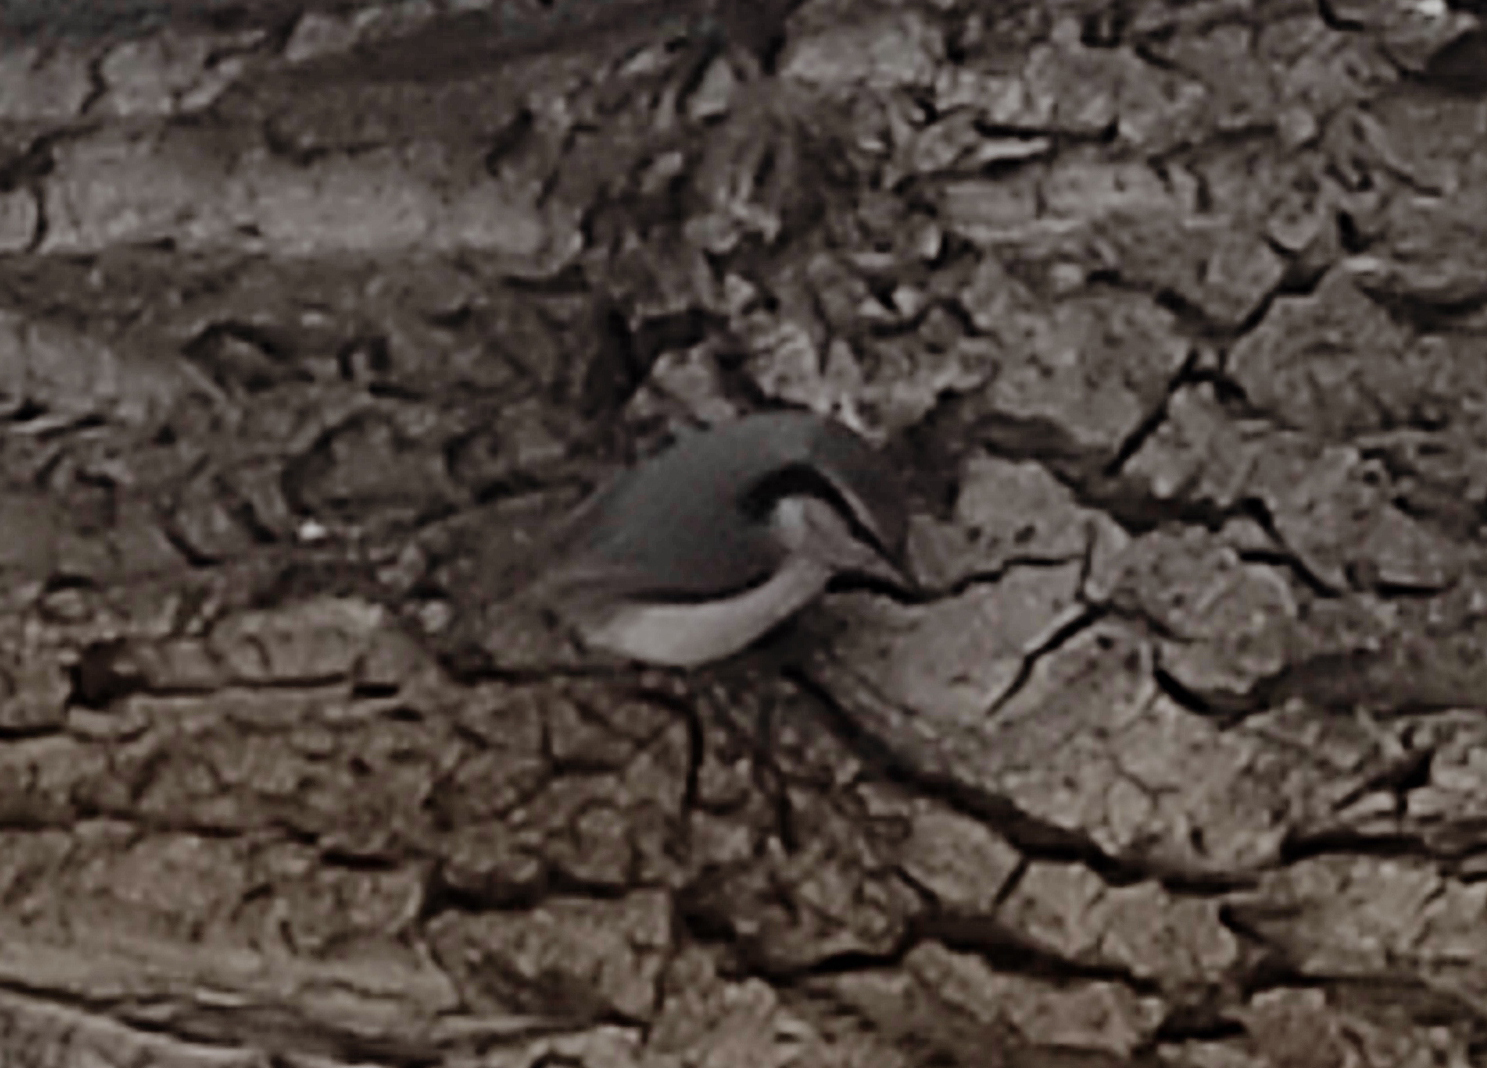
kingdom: Animalia
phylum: Chordata
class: Aves
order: Passeriformes
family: Sittidae
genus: Sitta
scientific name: Sitta europaea
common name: Eurasian nuthatch
